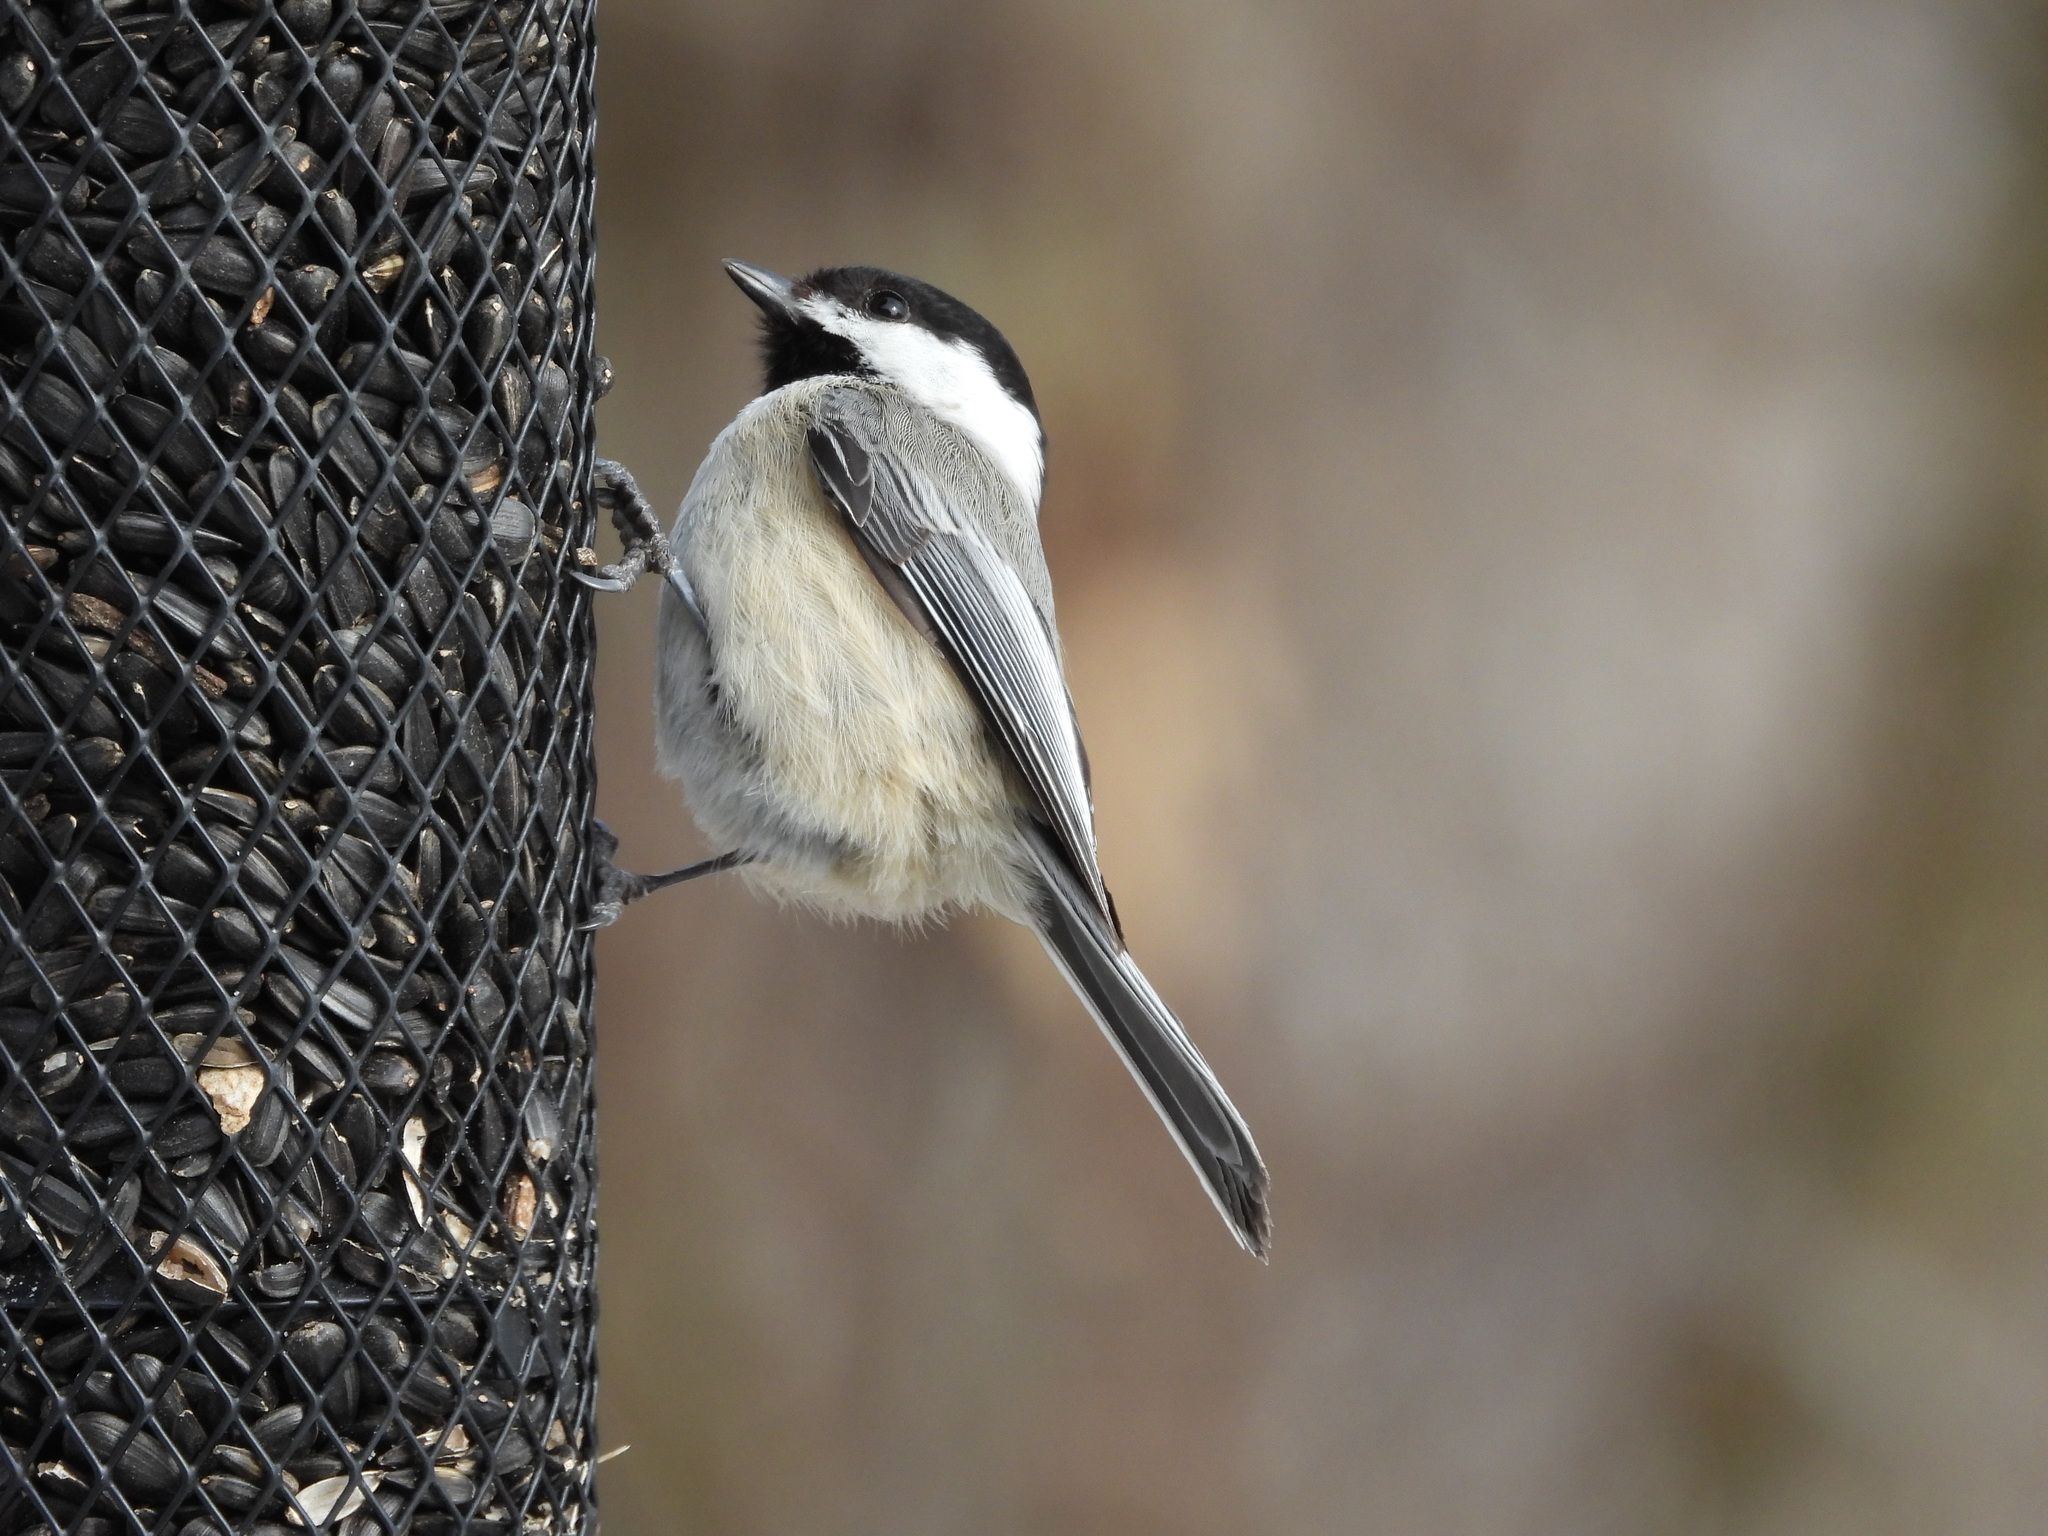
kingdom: Animalia
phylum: Chordata
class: Aves
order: Passeriformes
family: Paridae
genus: Poecile
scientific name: Poecile atricapillus
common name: Black-capped chickadee
